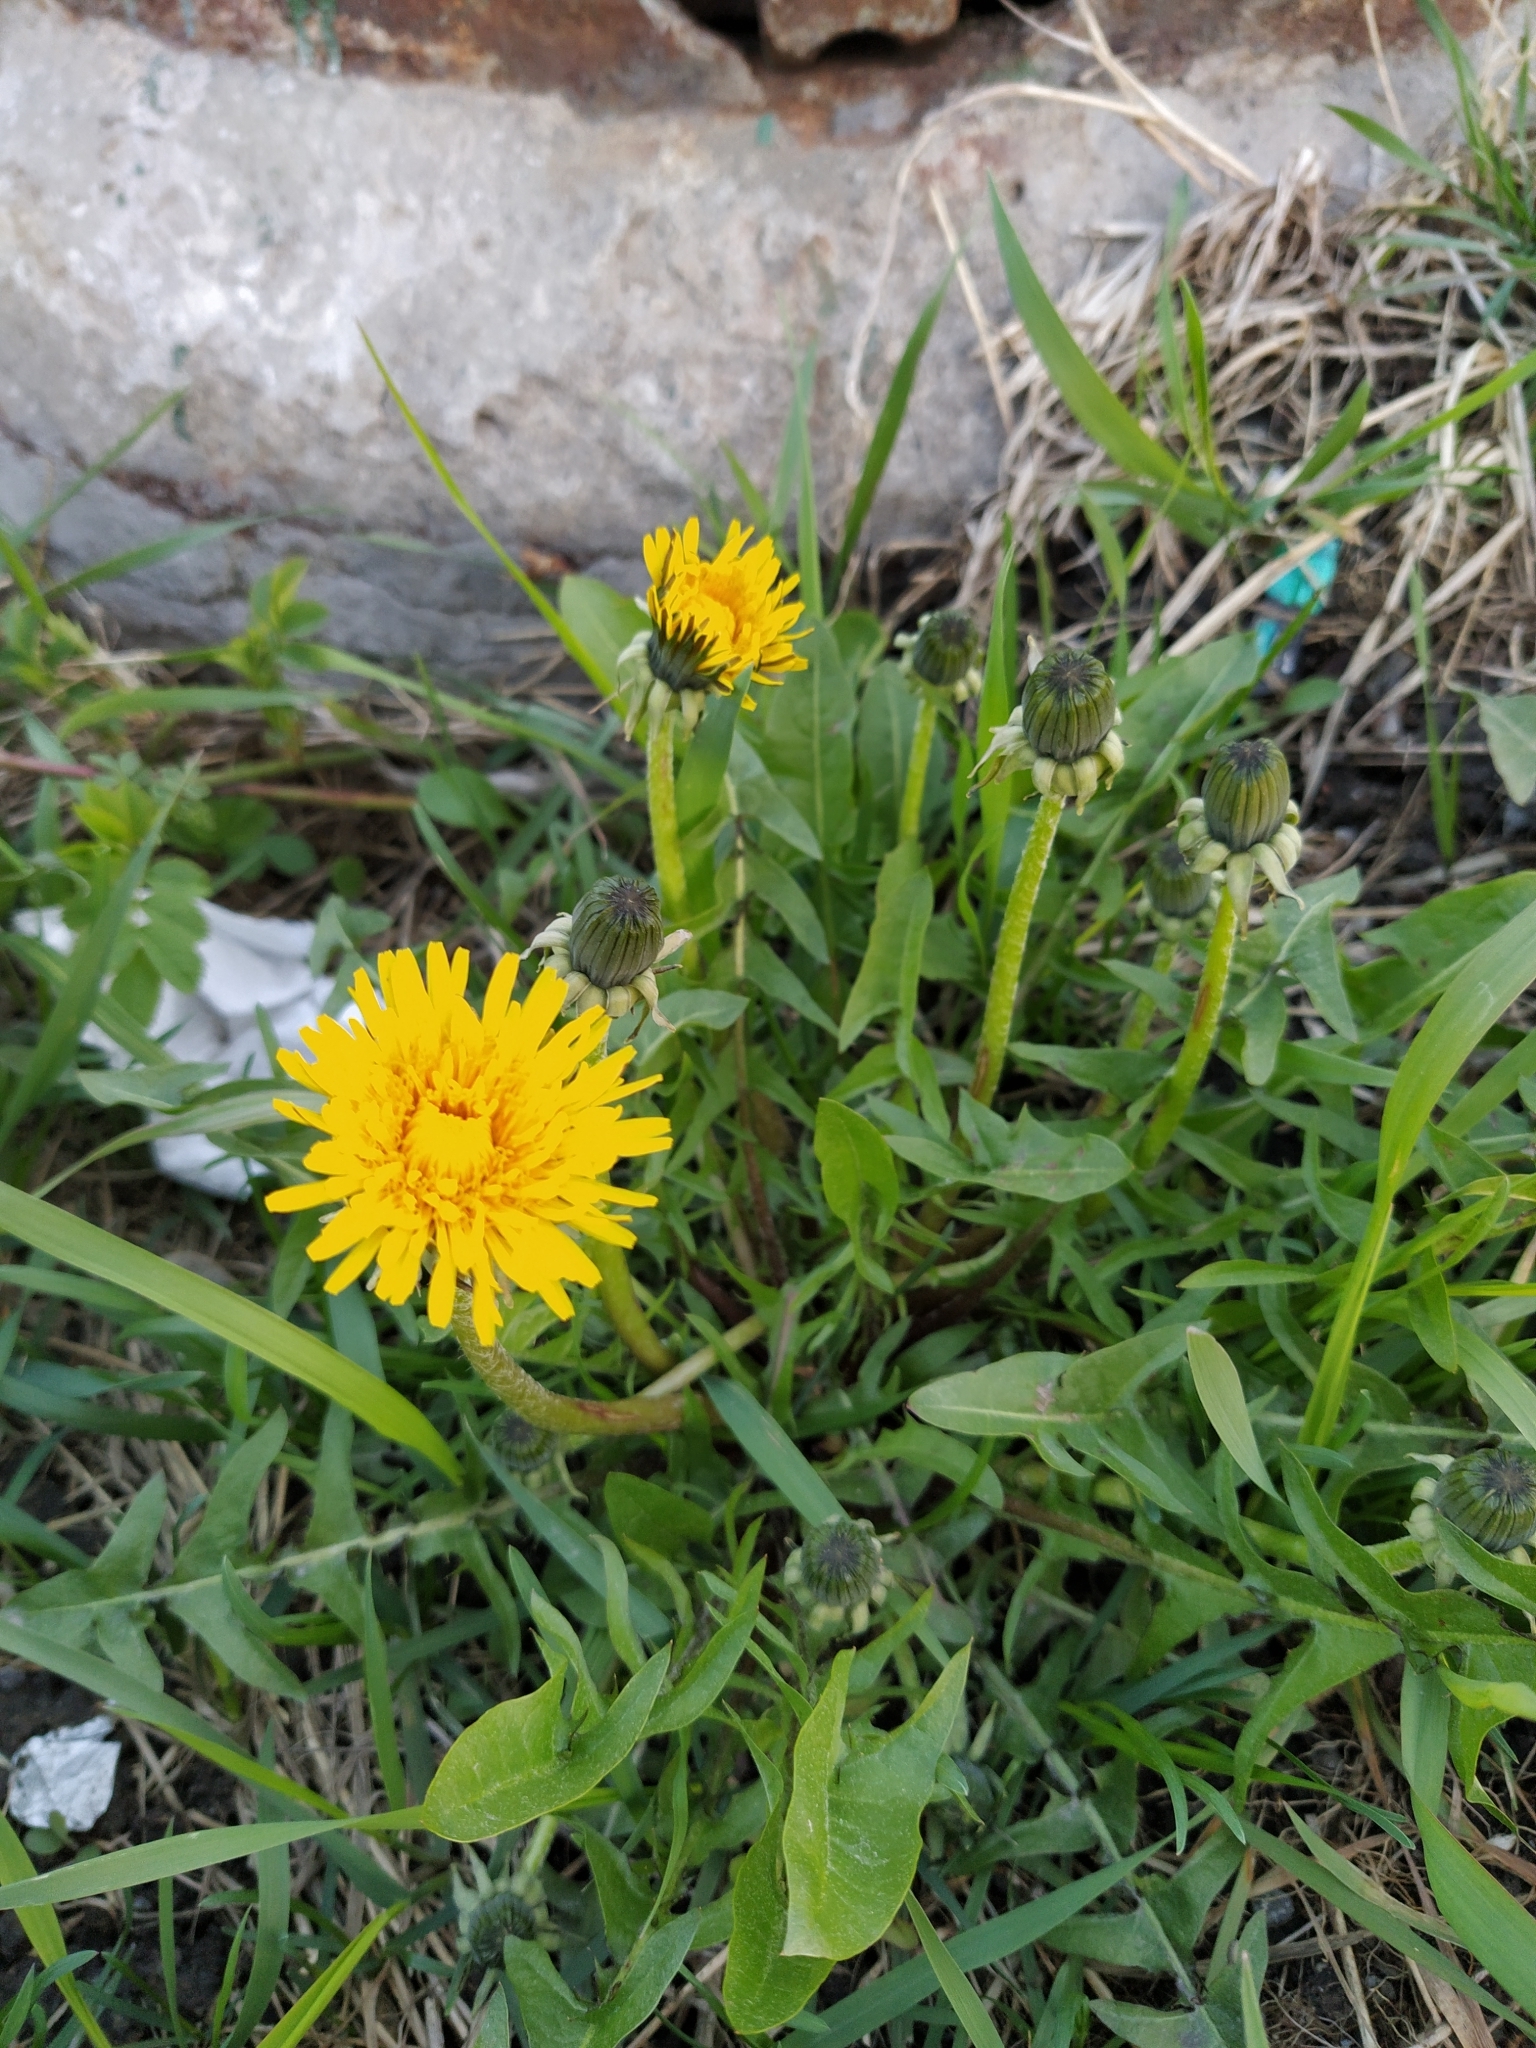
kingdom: Plantae
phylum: Tracheophyta
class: Magnoliopsida
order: Asterales
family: Asteraceae
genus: Taraxacum
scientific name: Taraxacum officinale
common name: Common dandelion
